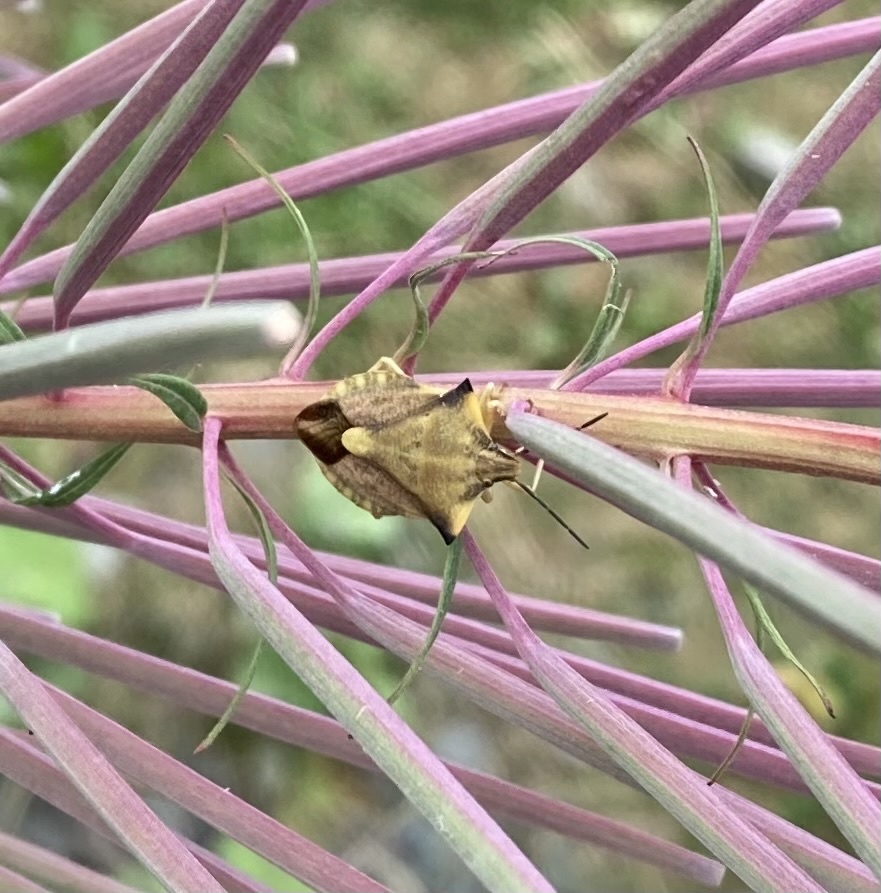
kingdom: Animalia
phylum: Arthropoda
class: Insecta
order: Hemiptera
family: Pentatomidae
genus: Carpocoris
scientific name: Carpocoris fuscispinus
